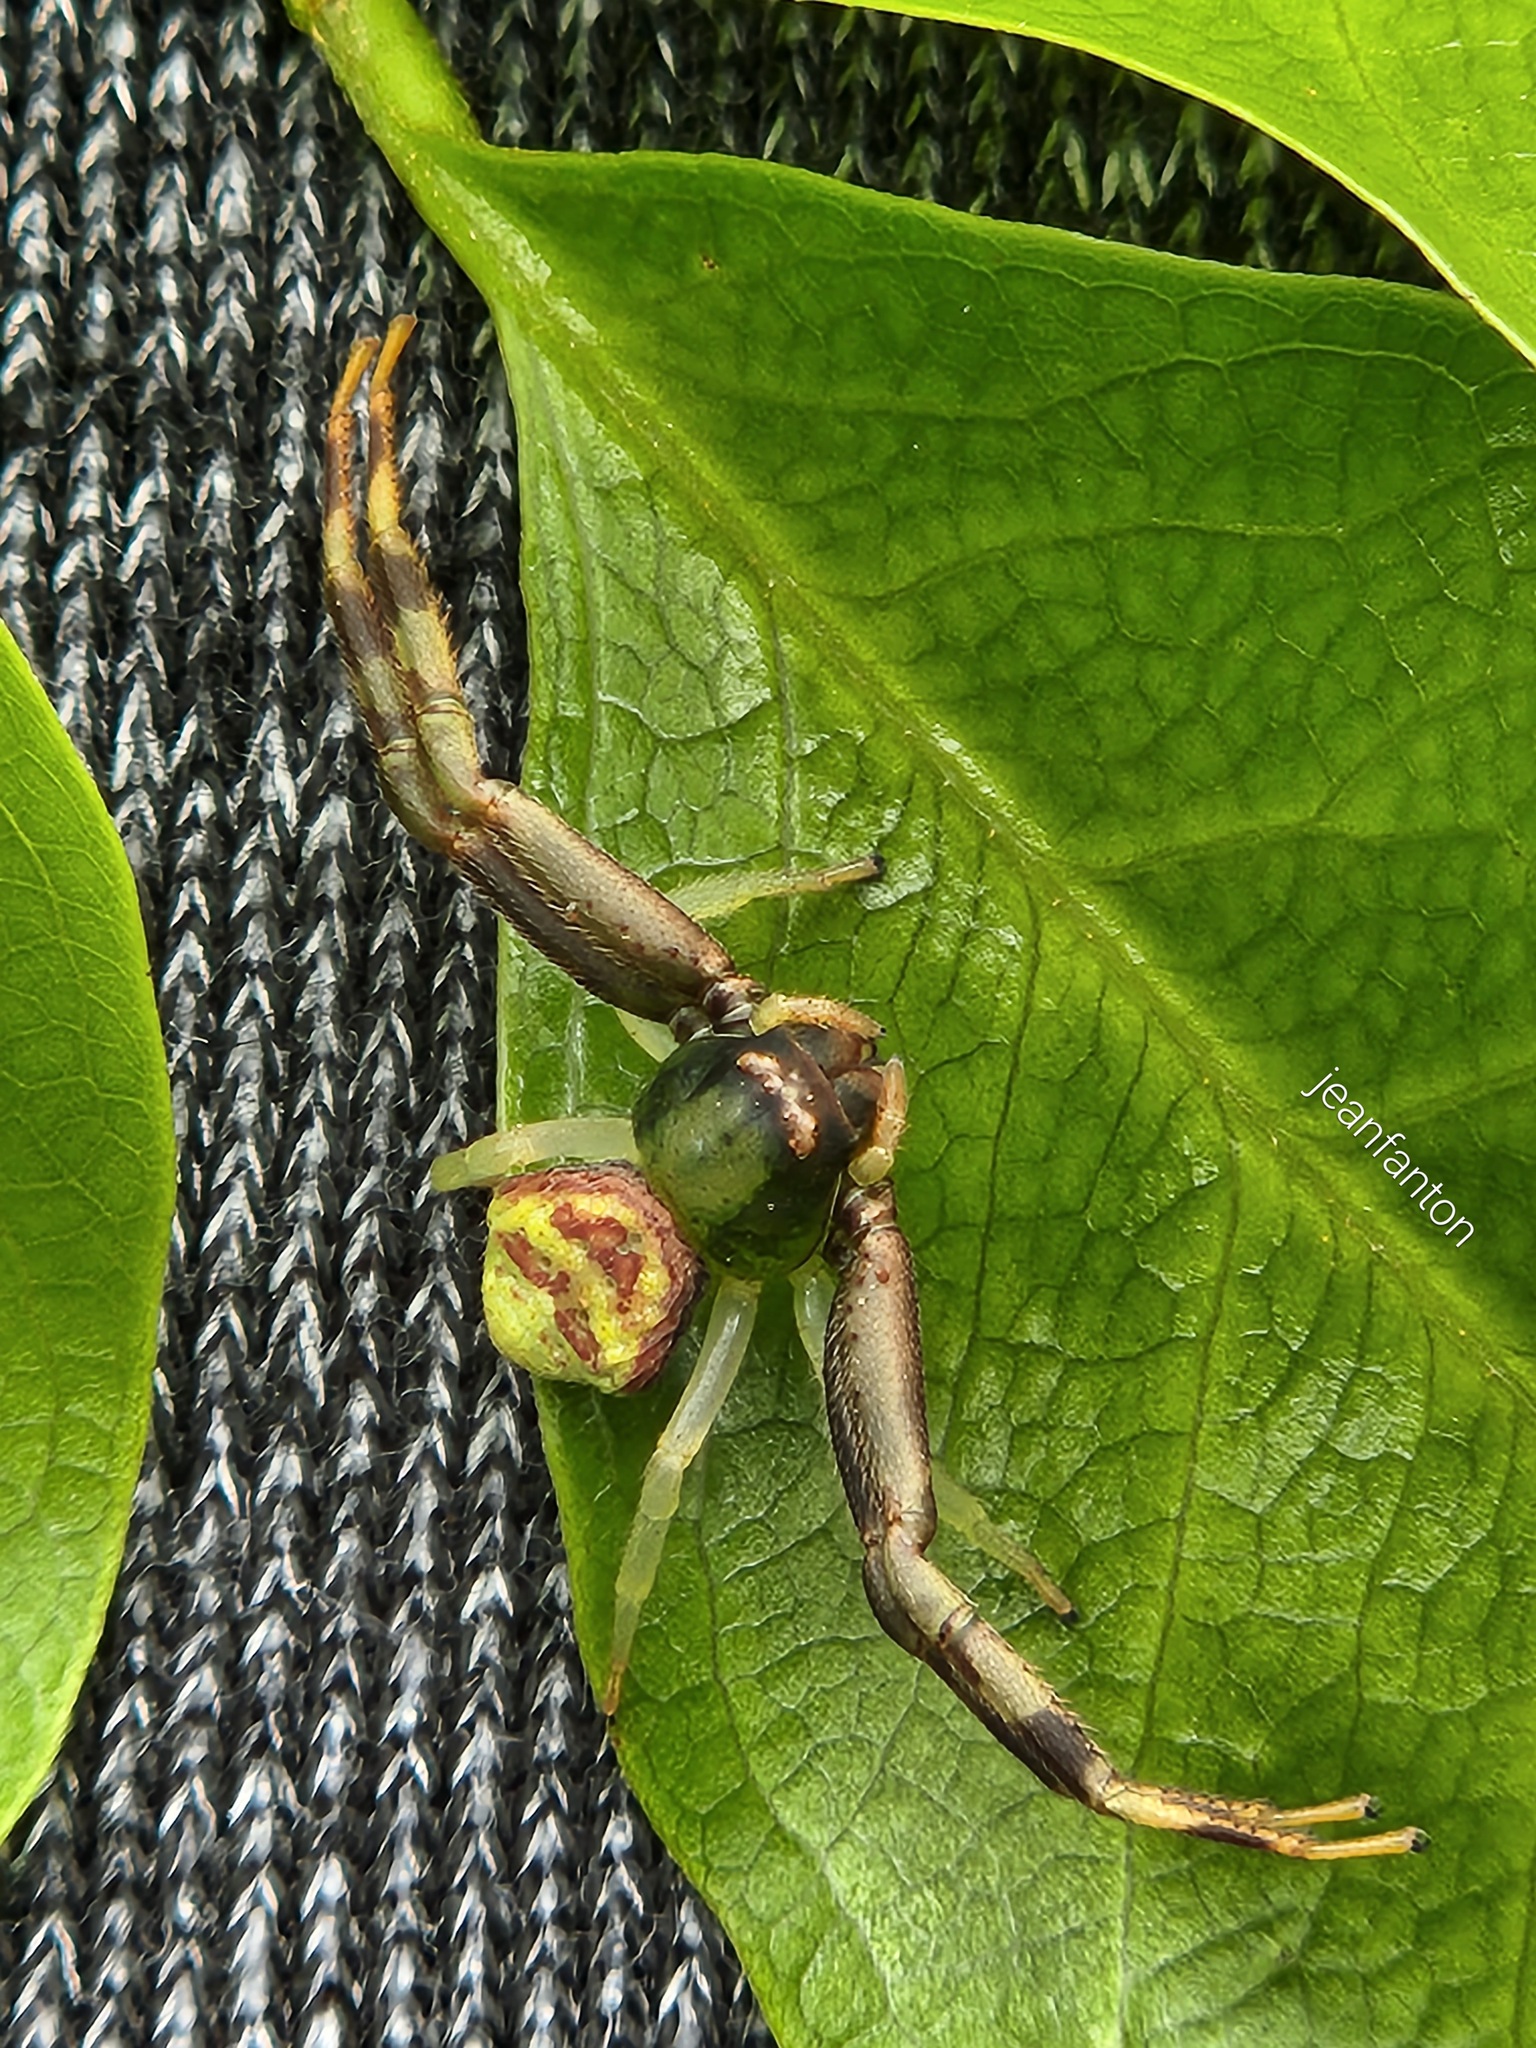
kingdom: Animalia
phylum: Arthropoda
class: Arachnida
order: Araneae
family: Thomisidae
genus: Runcinioides
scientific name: Runcinioides litteratus
